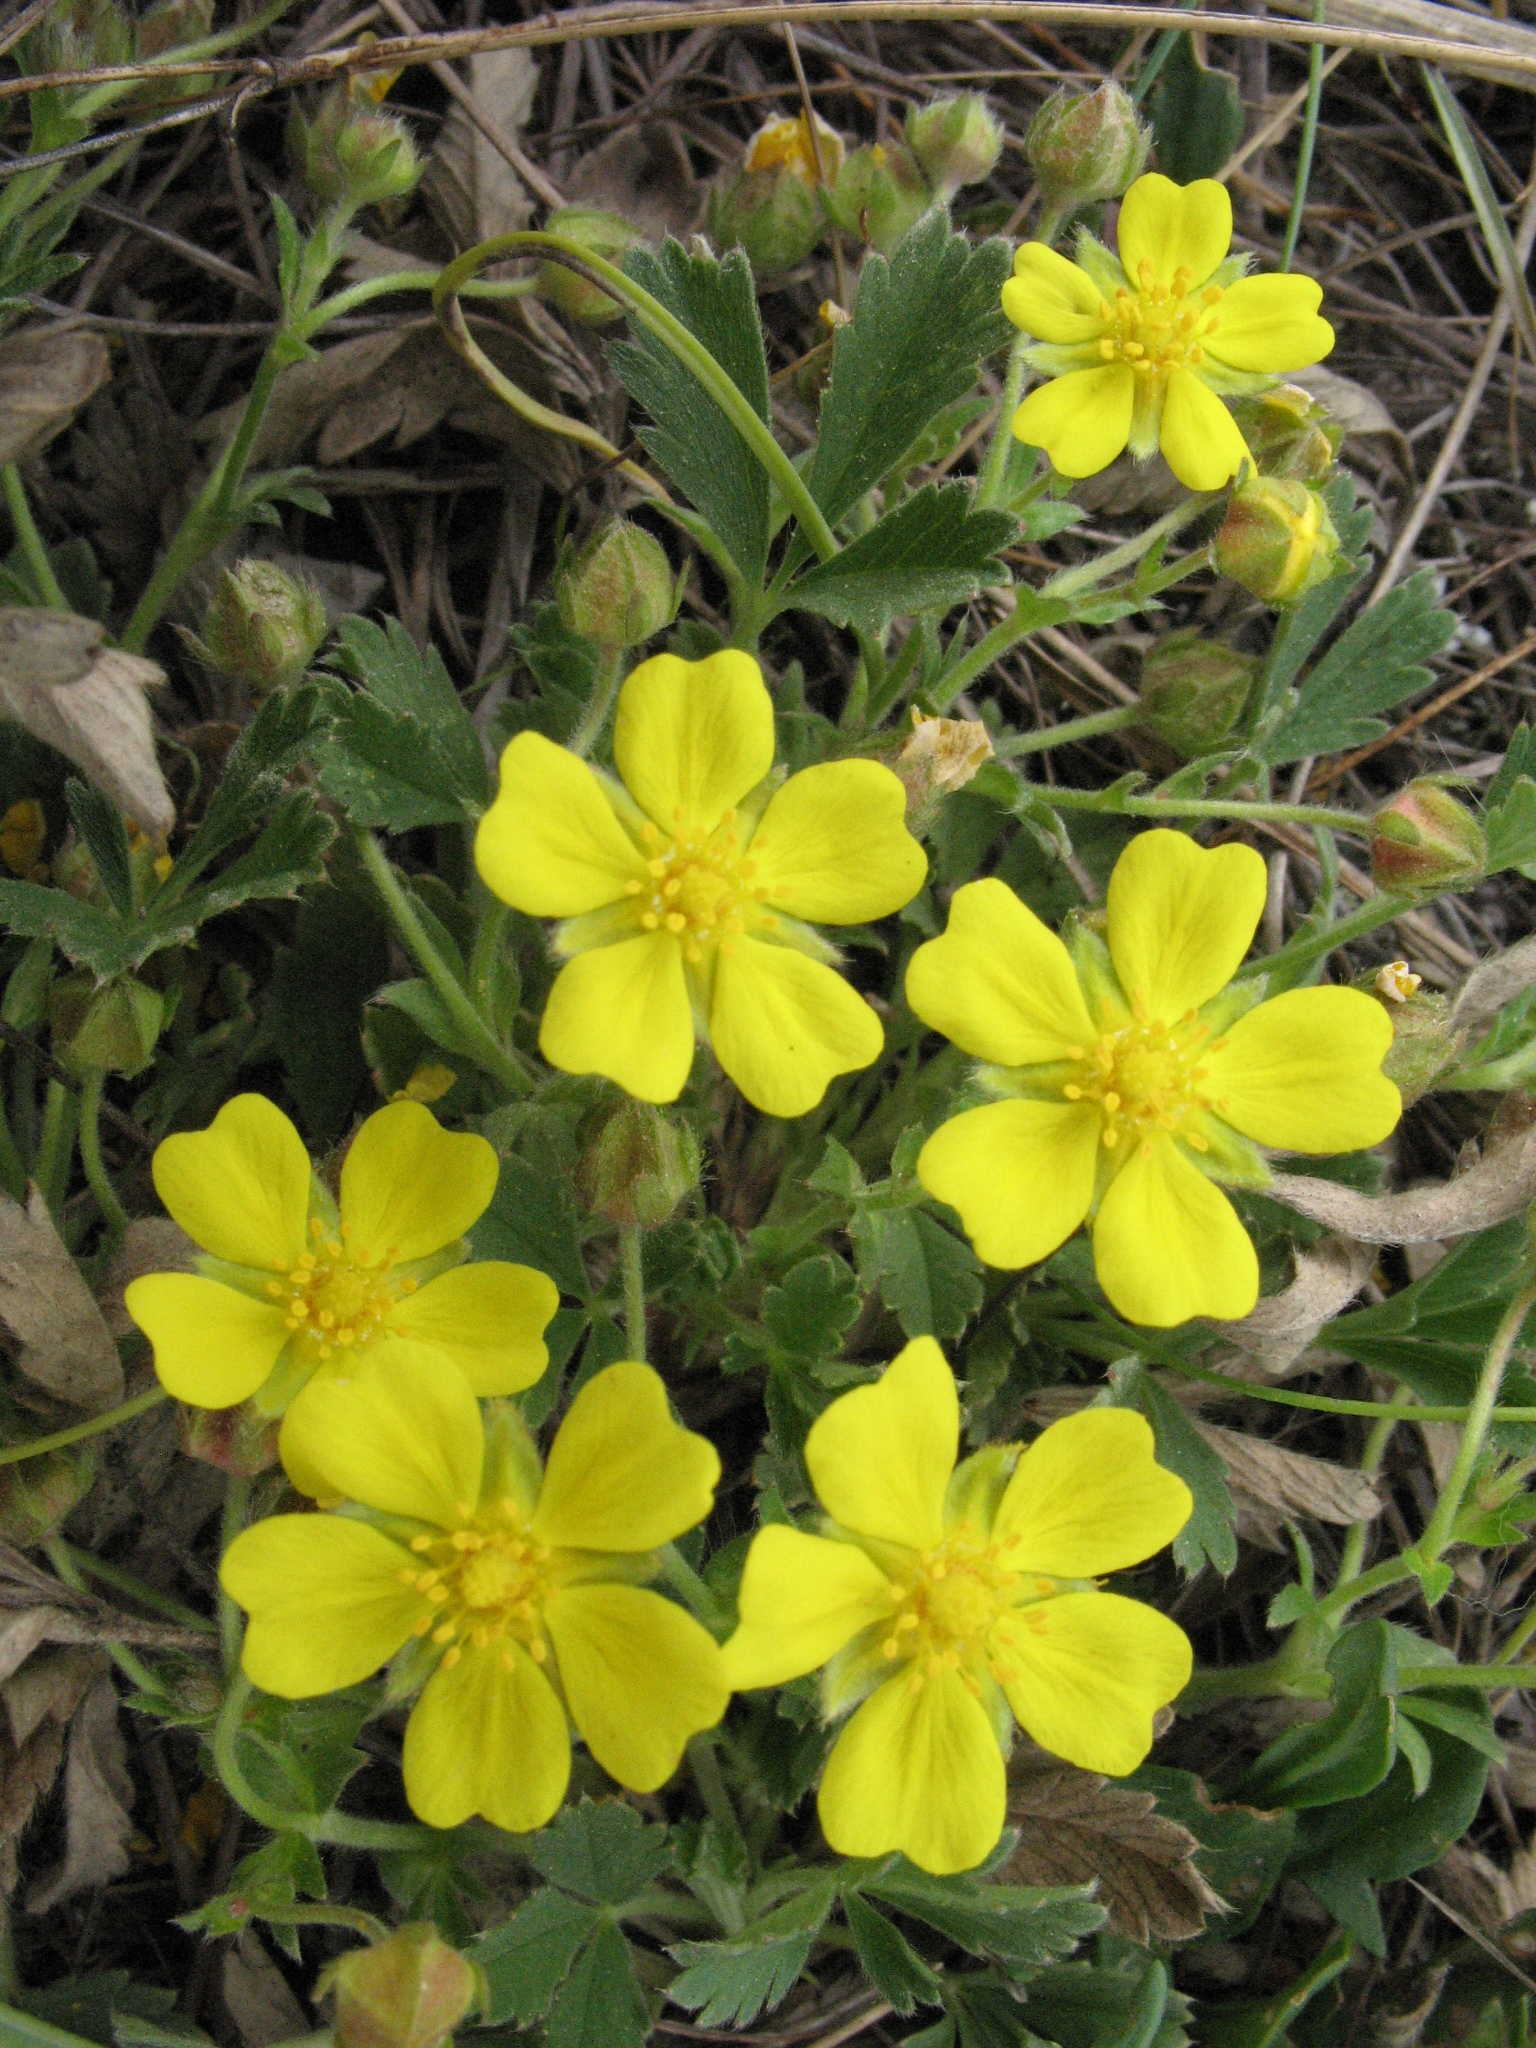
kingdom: Plantae
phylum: Tracheophyta
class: Magnoliopsida
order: Rosales
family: Rosaceae
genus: Potentilla
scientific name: Potentilla incana
